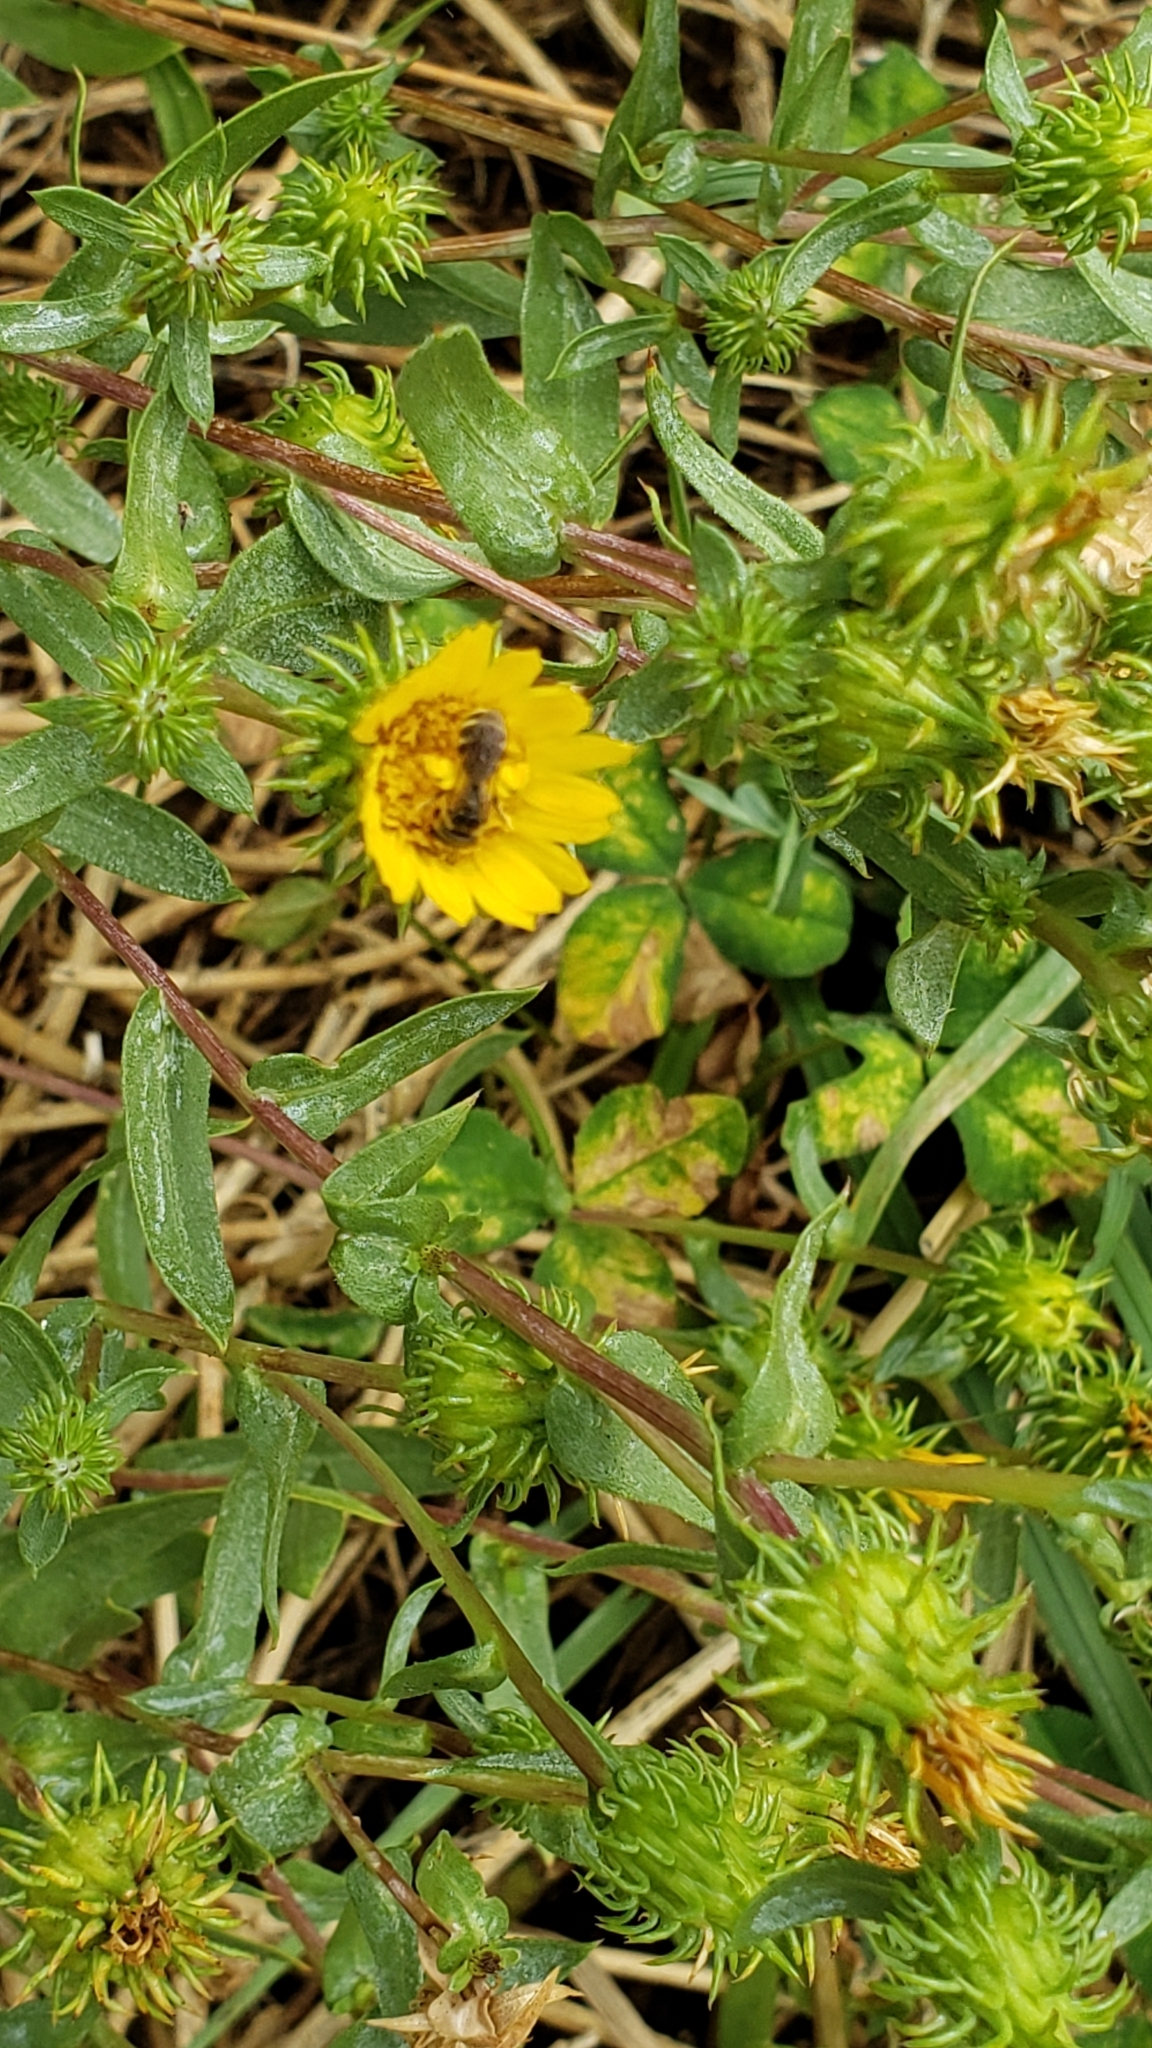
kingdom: Animalia
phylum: Arthropoda
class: Insecta
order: Hymenoptera
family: Halictidae
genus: Halictus
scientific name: Halictus ligatus
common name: Ligated furrow bee
